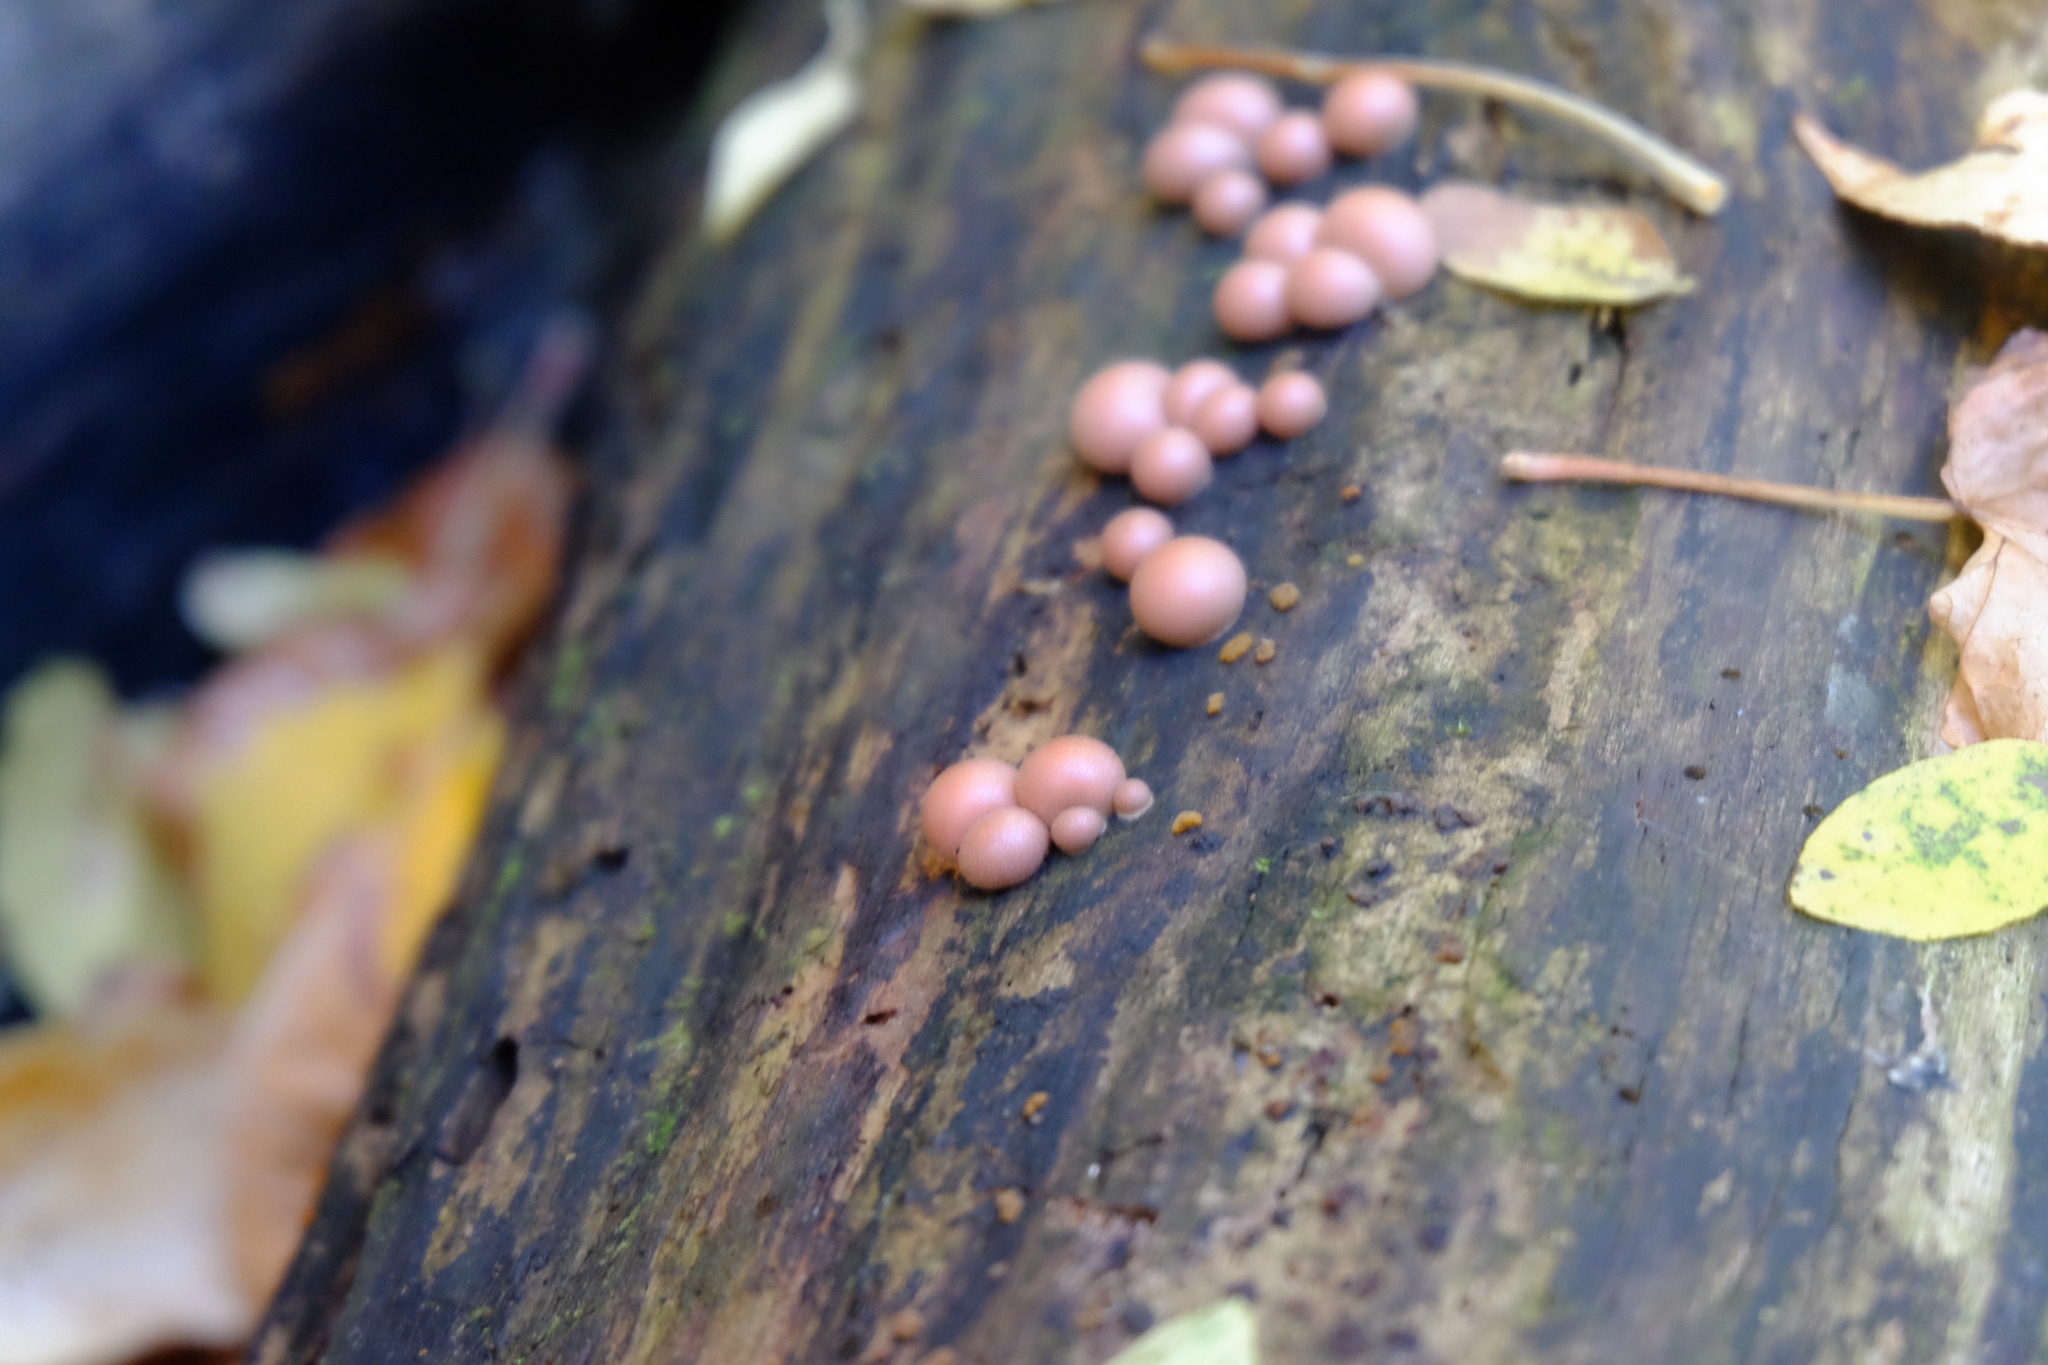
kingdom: Protozoa
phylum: Mycetozoa
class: Myxomycetes
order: Cribrariales
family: Tubiferaceae
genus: Lycogala
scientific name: Lycogala epidendrum
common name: Wolf's milk
